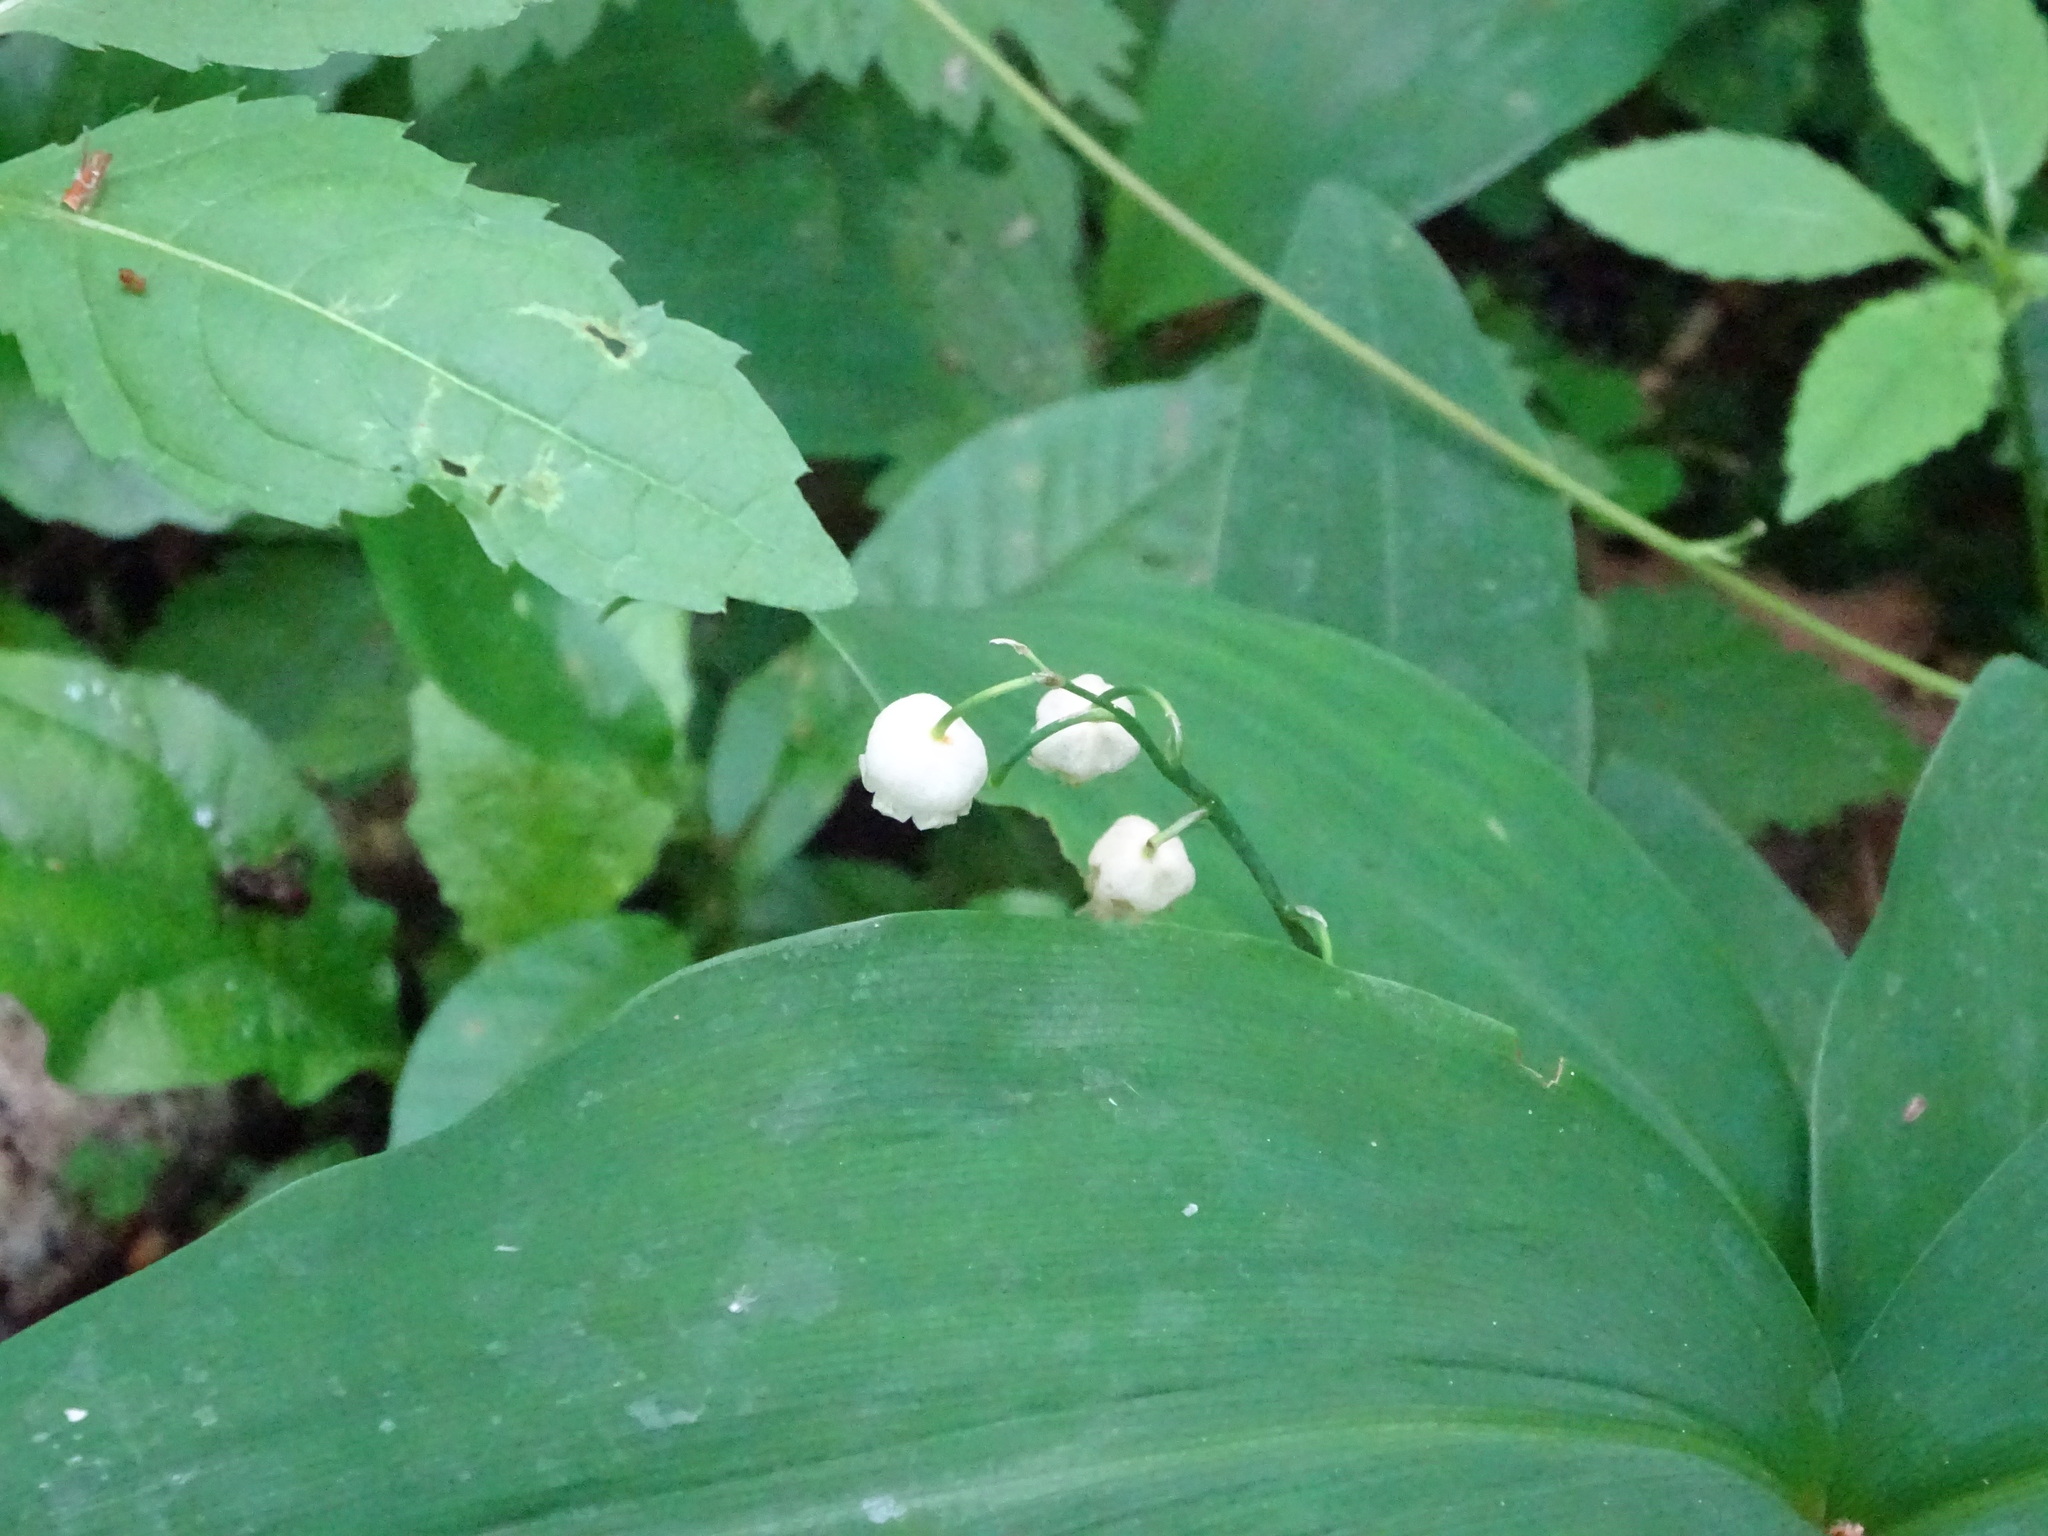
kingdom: Plantae
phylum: Tracheophyta
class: Liliopsida
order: Asparagales
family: Asparagaceae
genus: Convallaria
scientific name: Convallaria majalis
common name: Lily-of-the-valley
